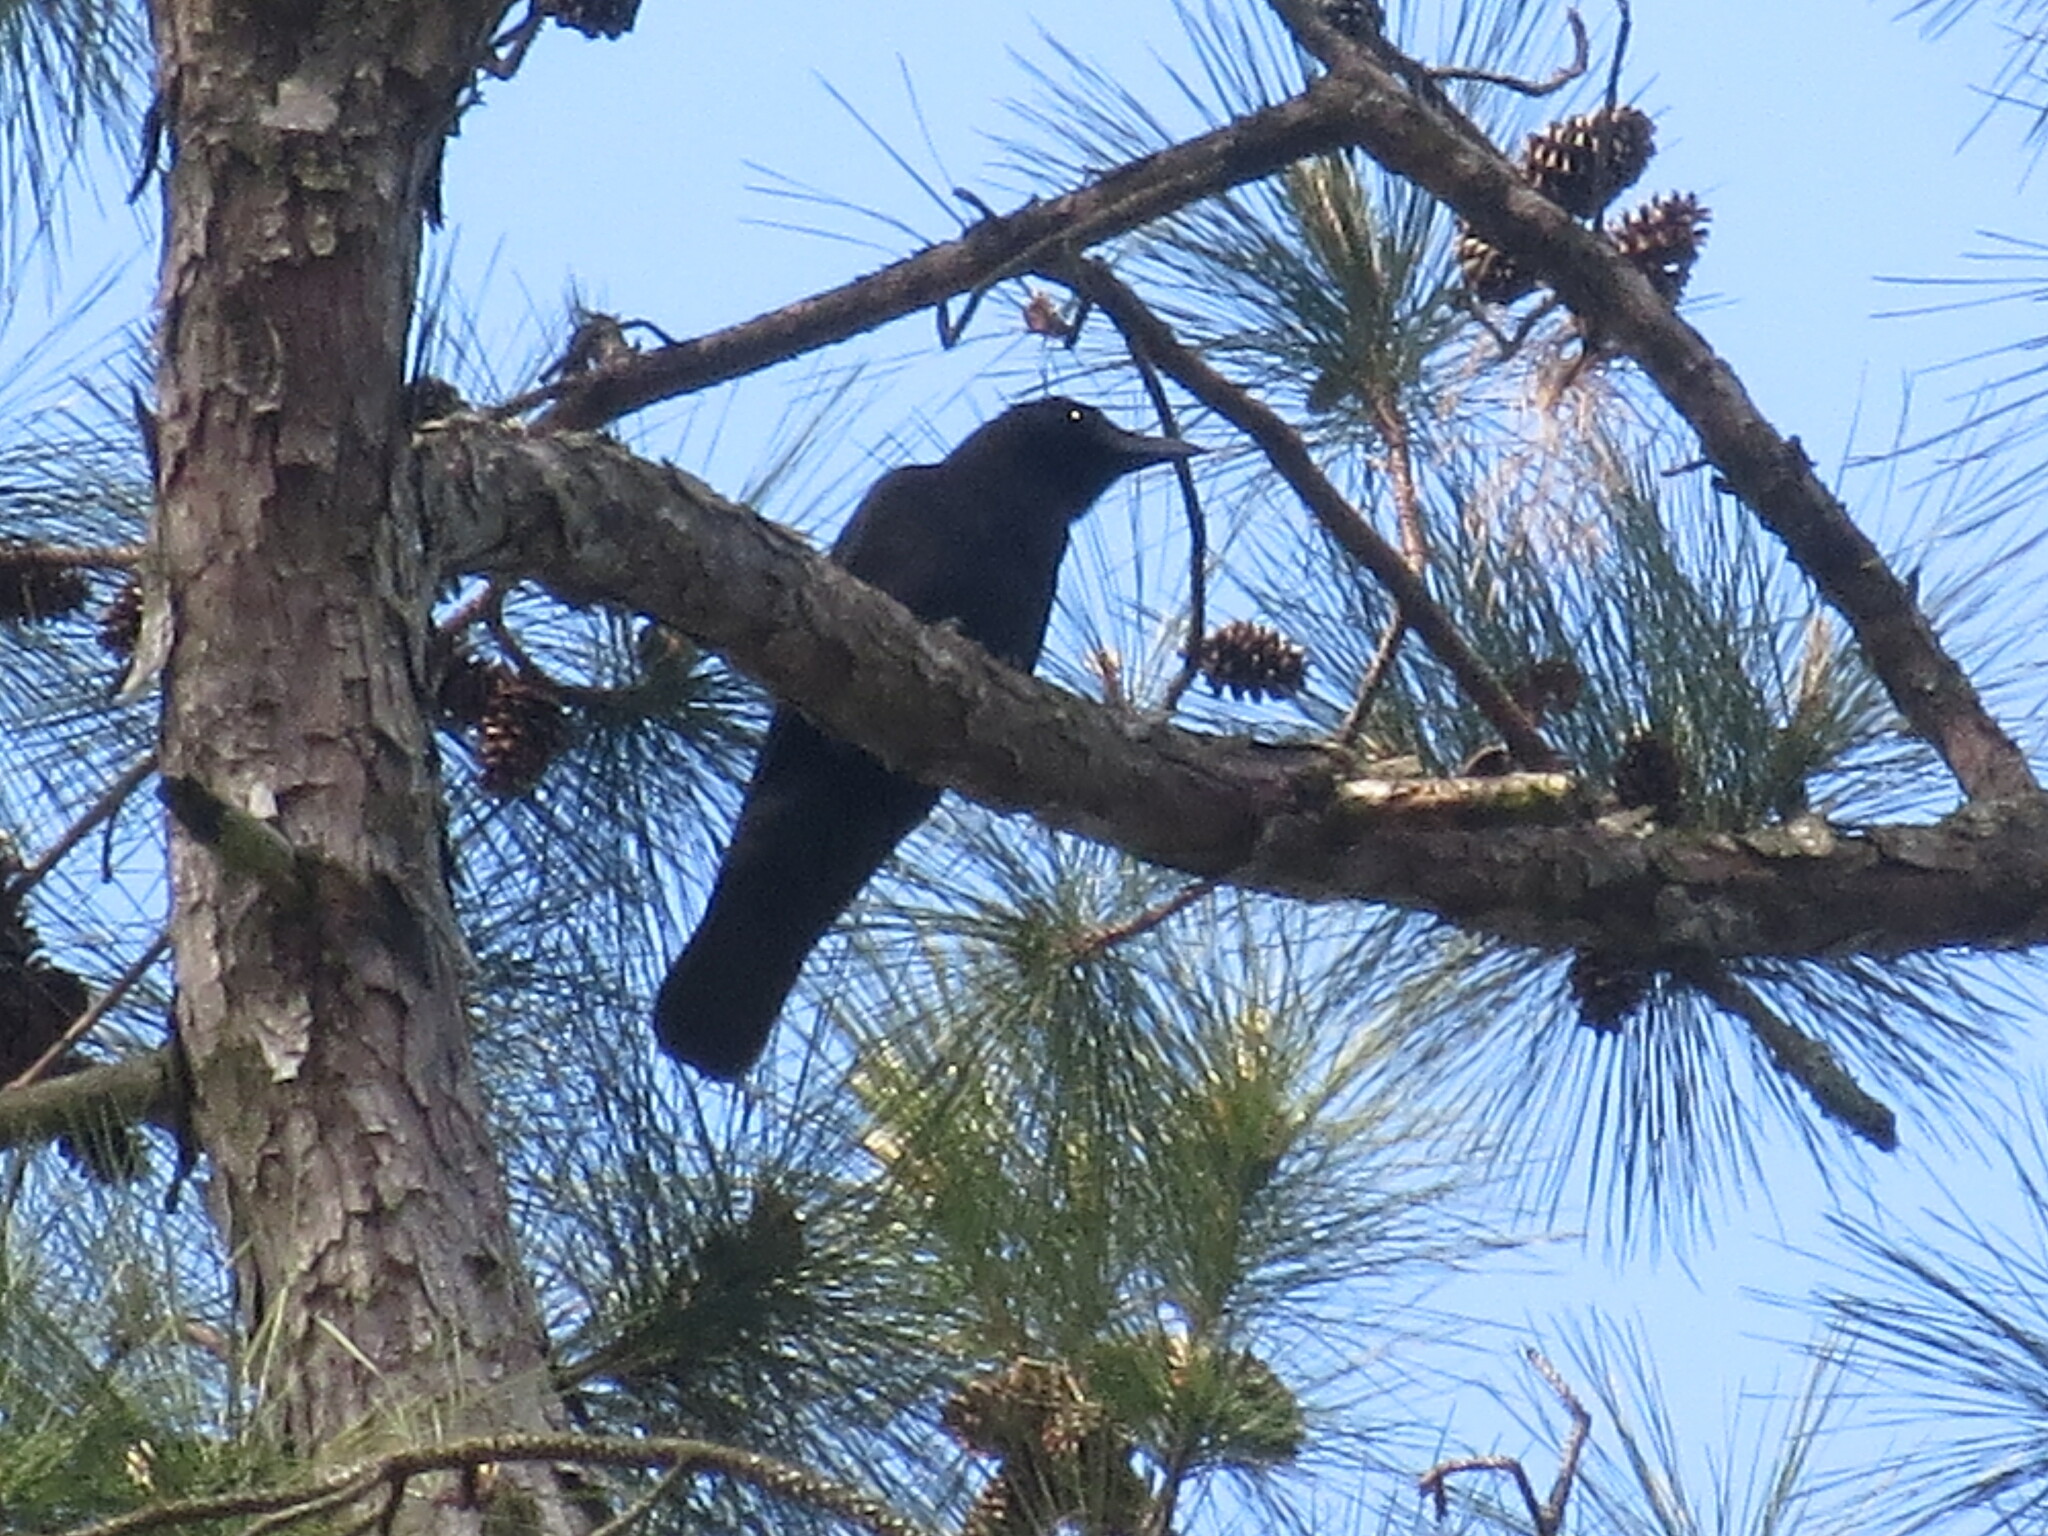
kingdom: Animalia
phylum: Chordata
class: Aves
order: Passeriformes
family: Corvidae
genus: Corvus
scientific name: Corvus brachyrhynchos
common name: American crow
